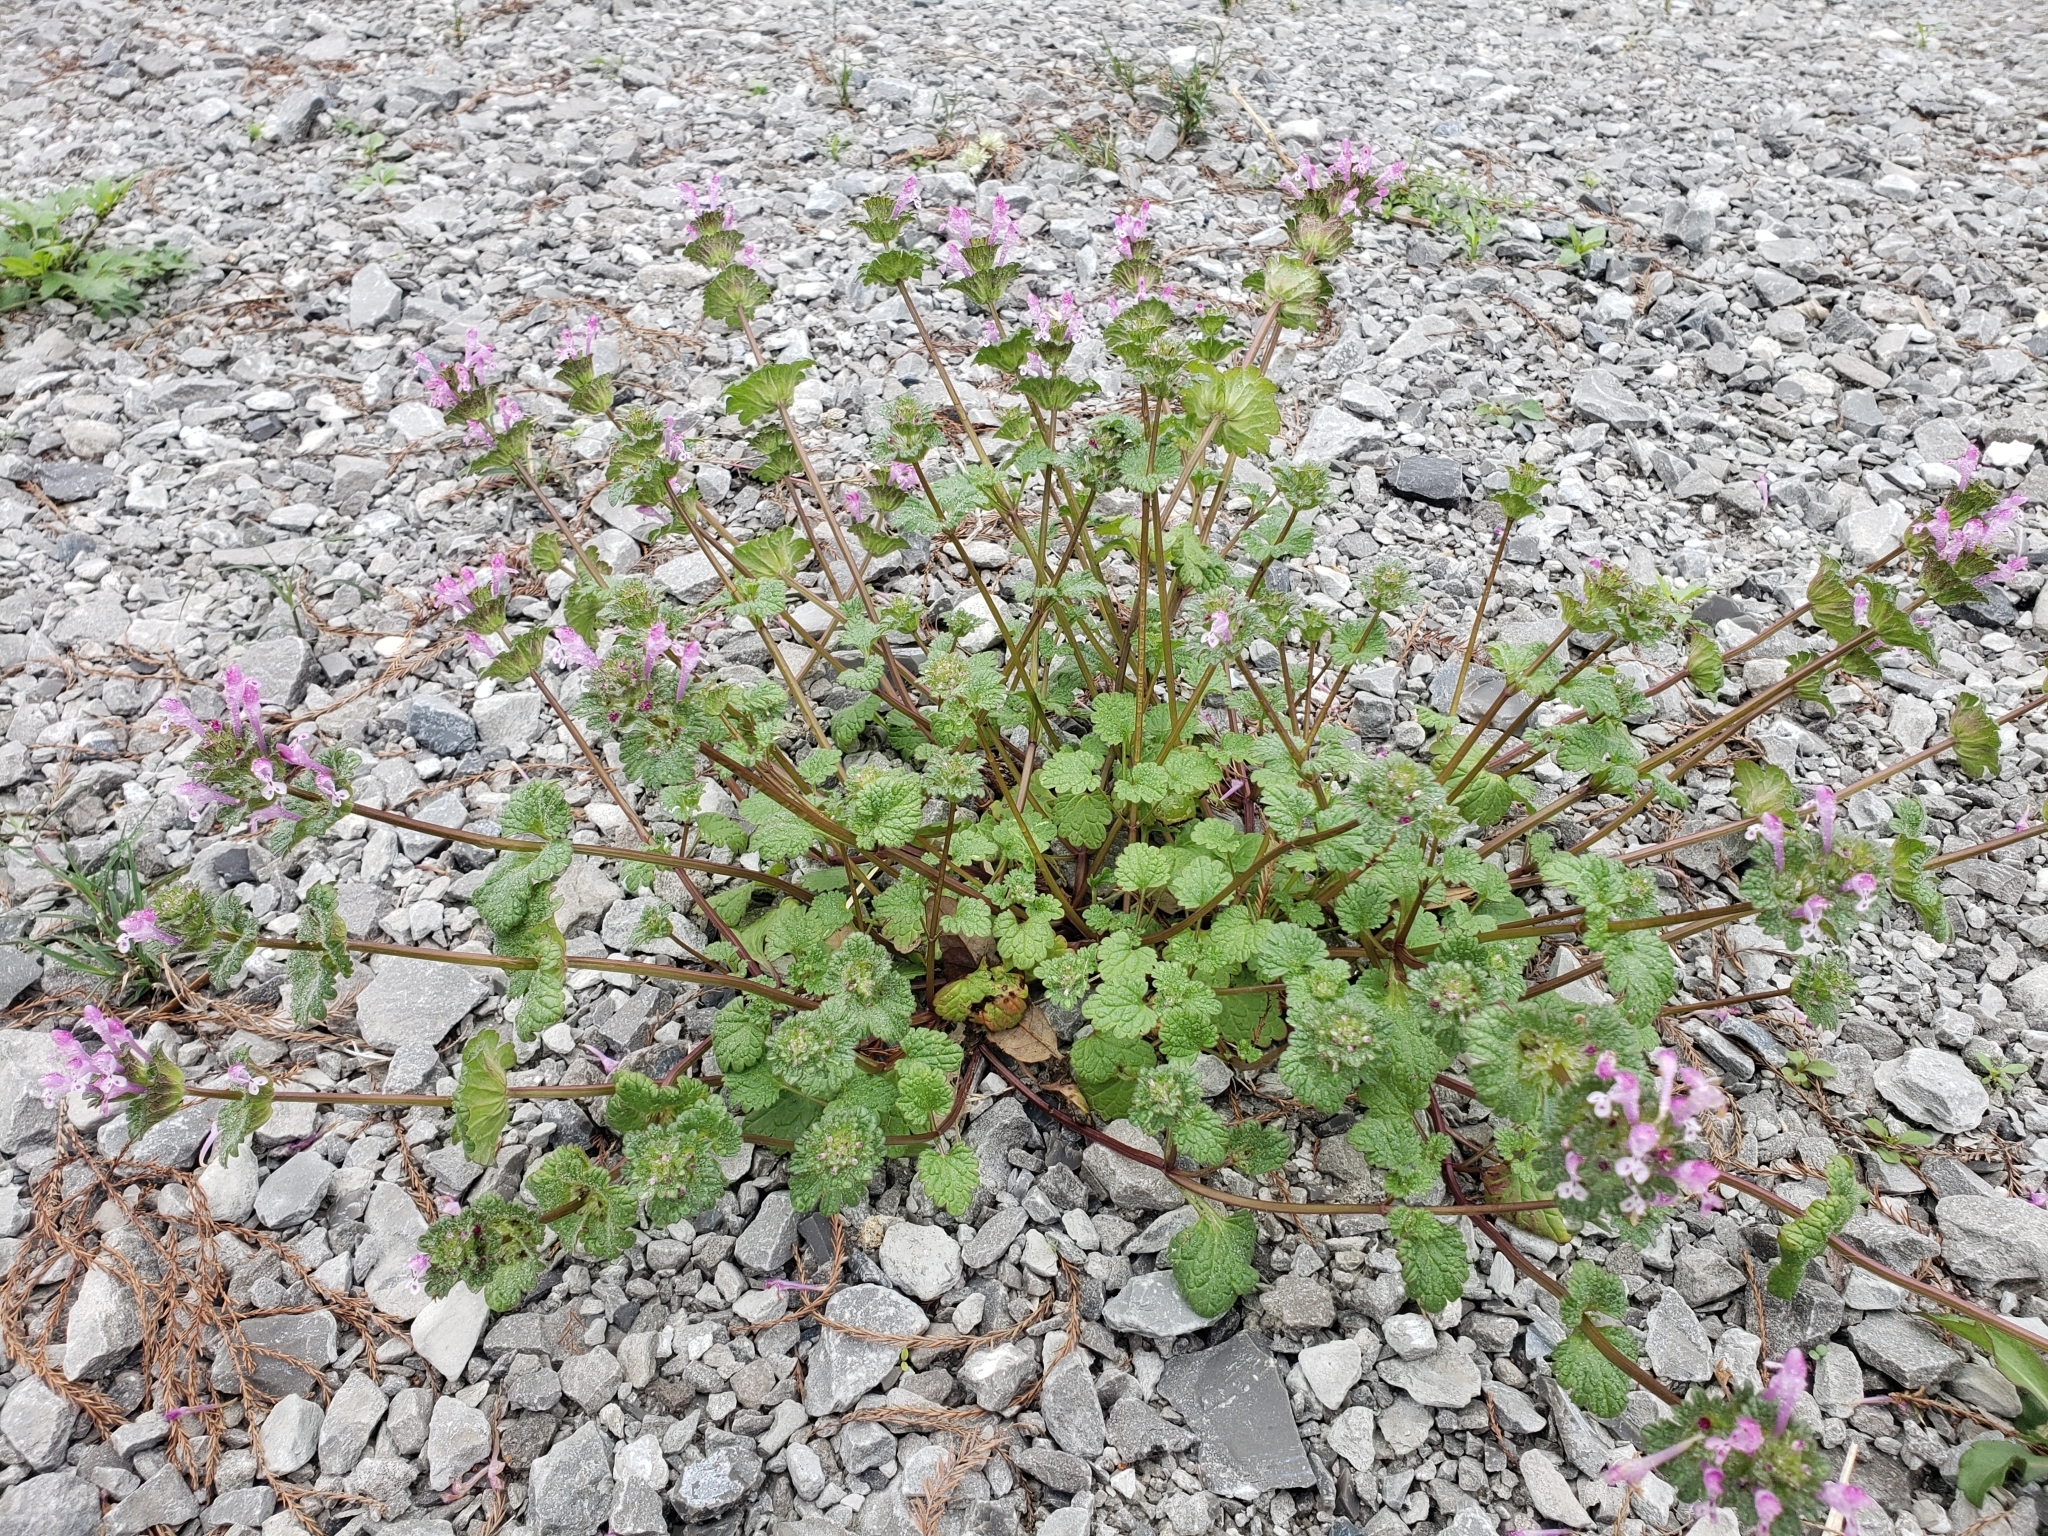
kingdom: Plantae
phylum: Tracheophyta
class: Magnoliopsida
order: Lamiales
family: Lamiaceae
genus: Lamium
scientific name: Lamium amplexicaule
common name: Henbit dead-nettle
